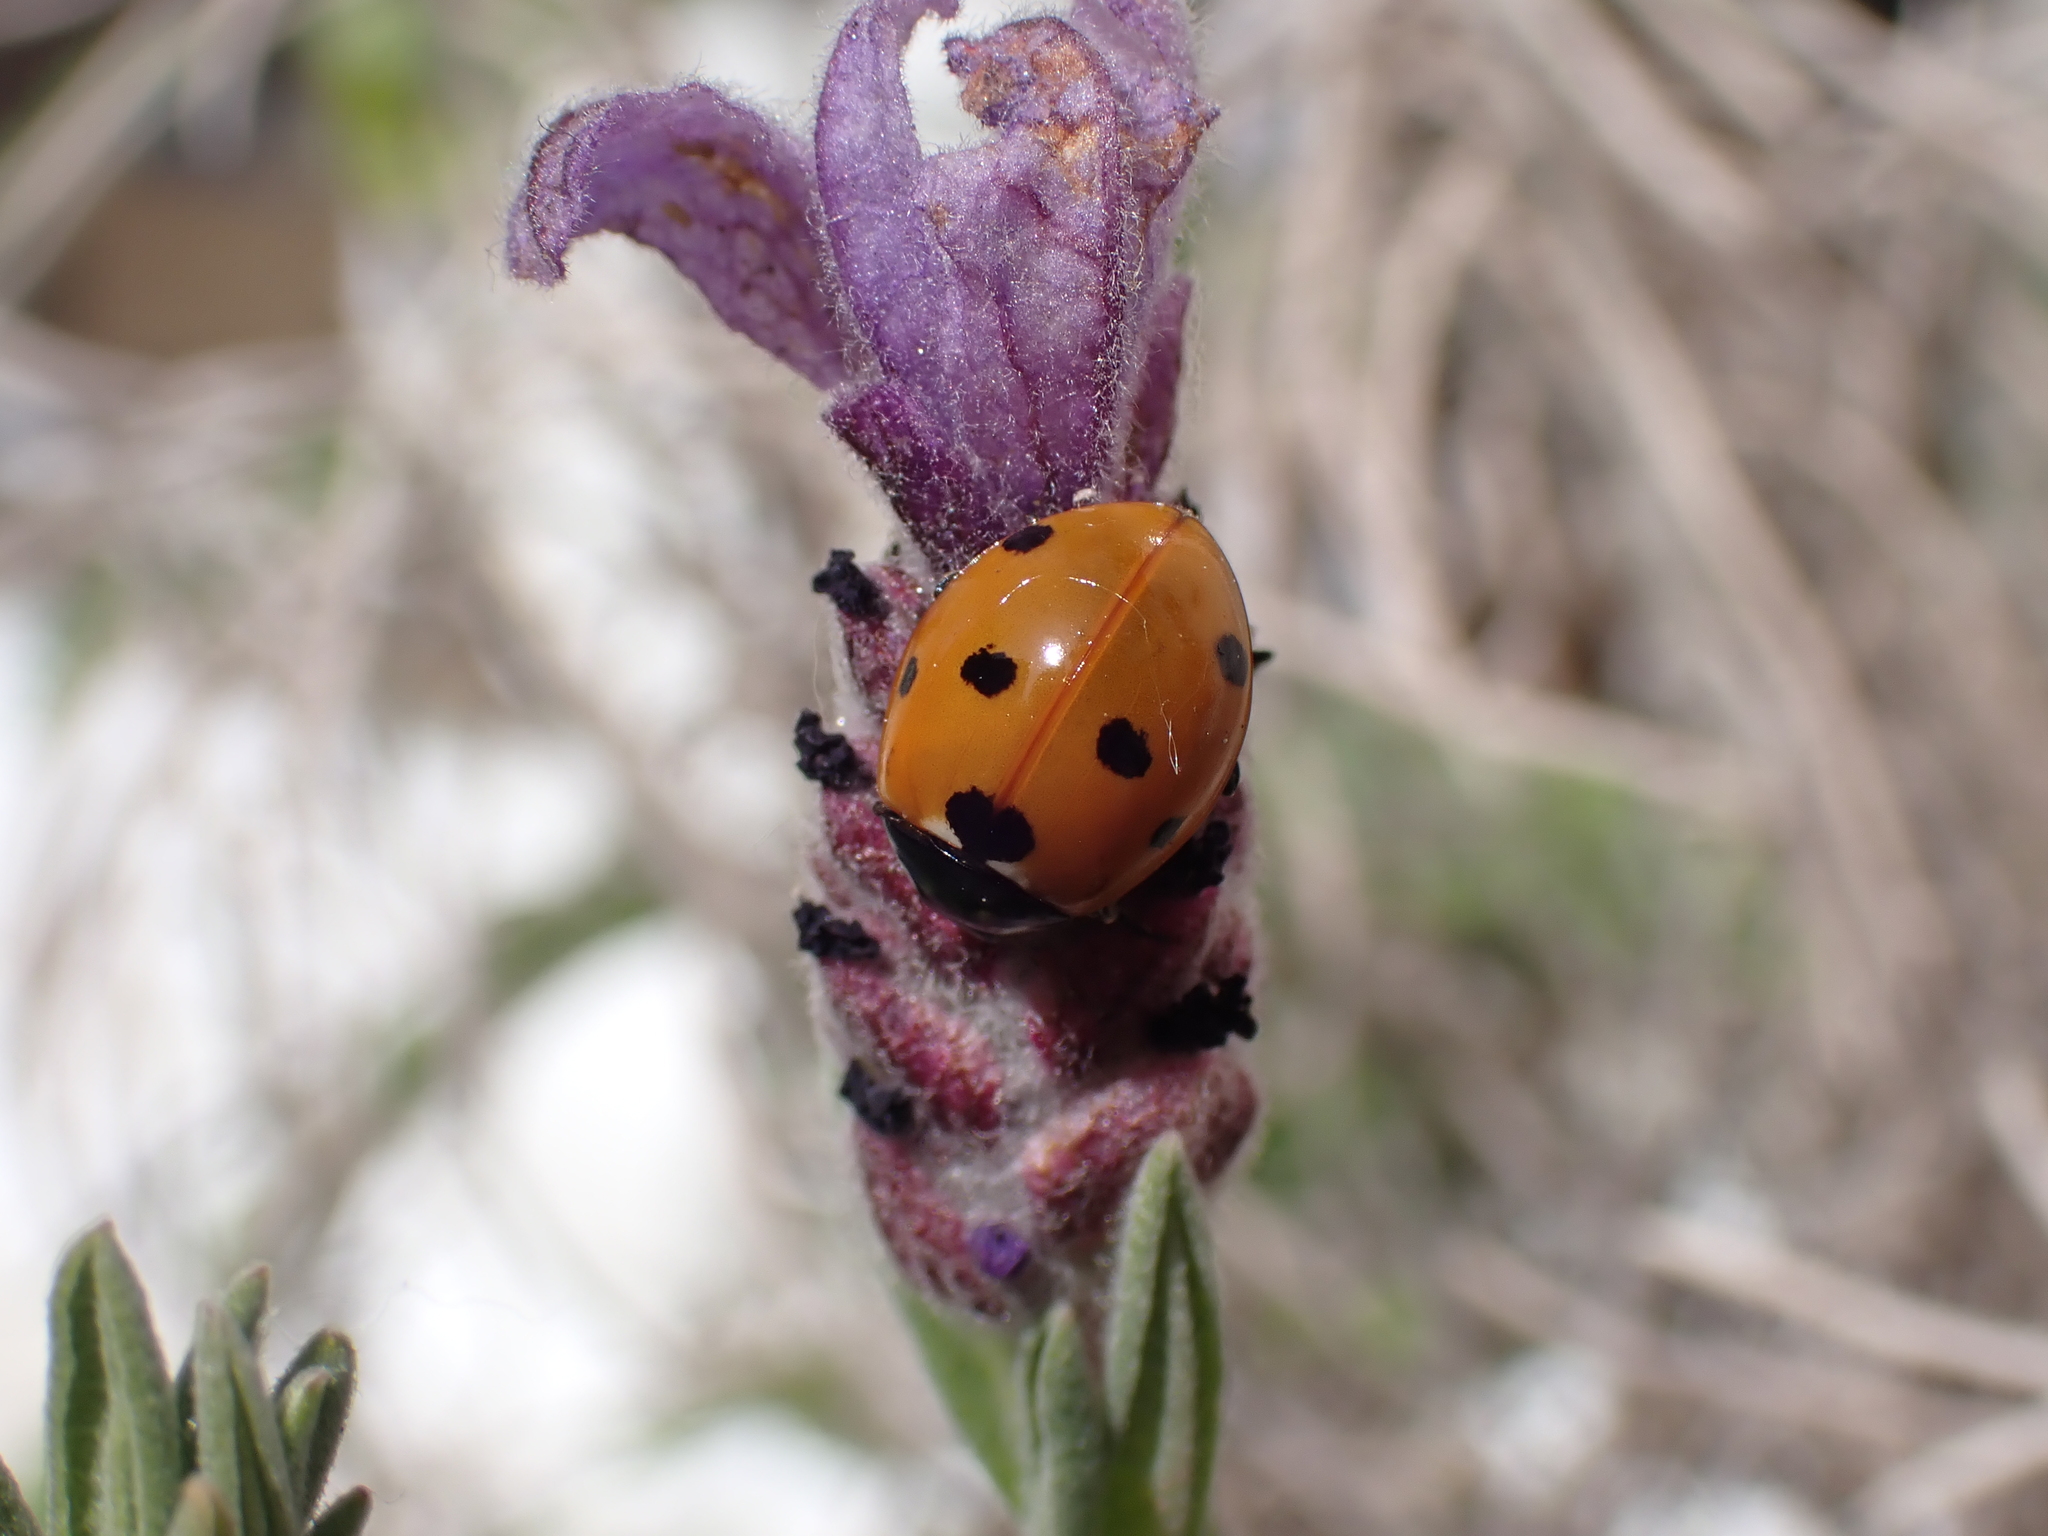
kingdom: Animalia
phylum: Arthropoda
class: Insecta
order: Coleoptera
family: Coccinellidae
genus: Coccinella
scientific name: Coccinella septempunctata
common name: Sevenspotted lady beetle
